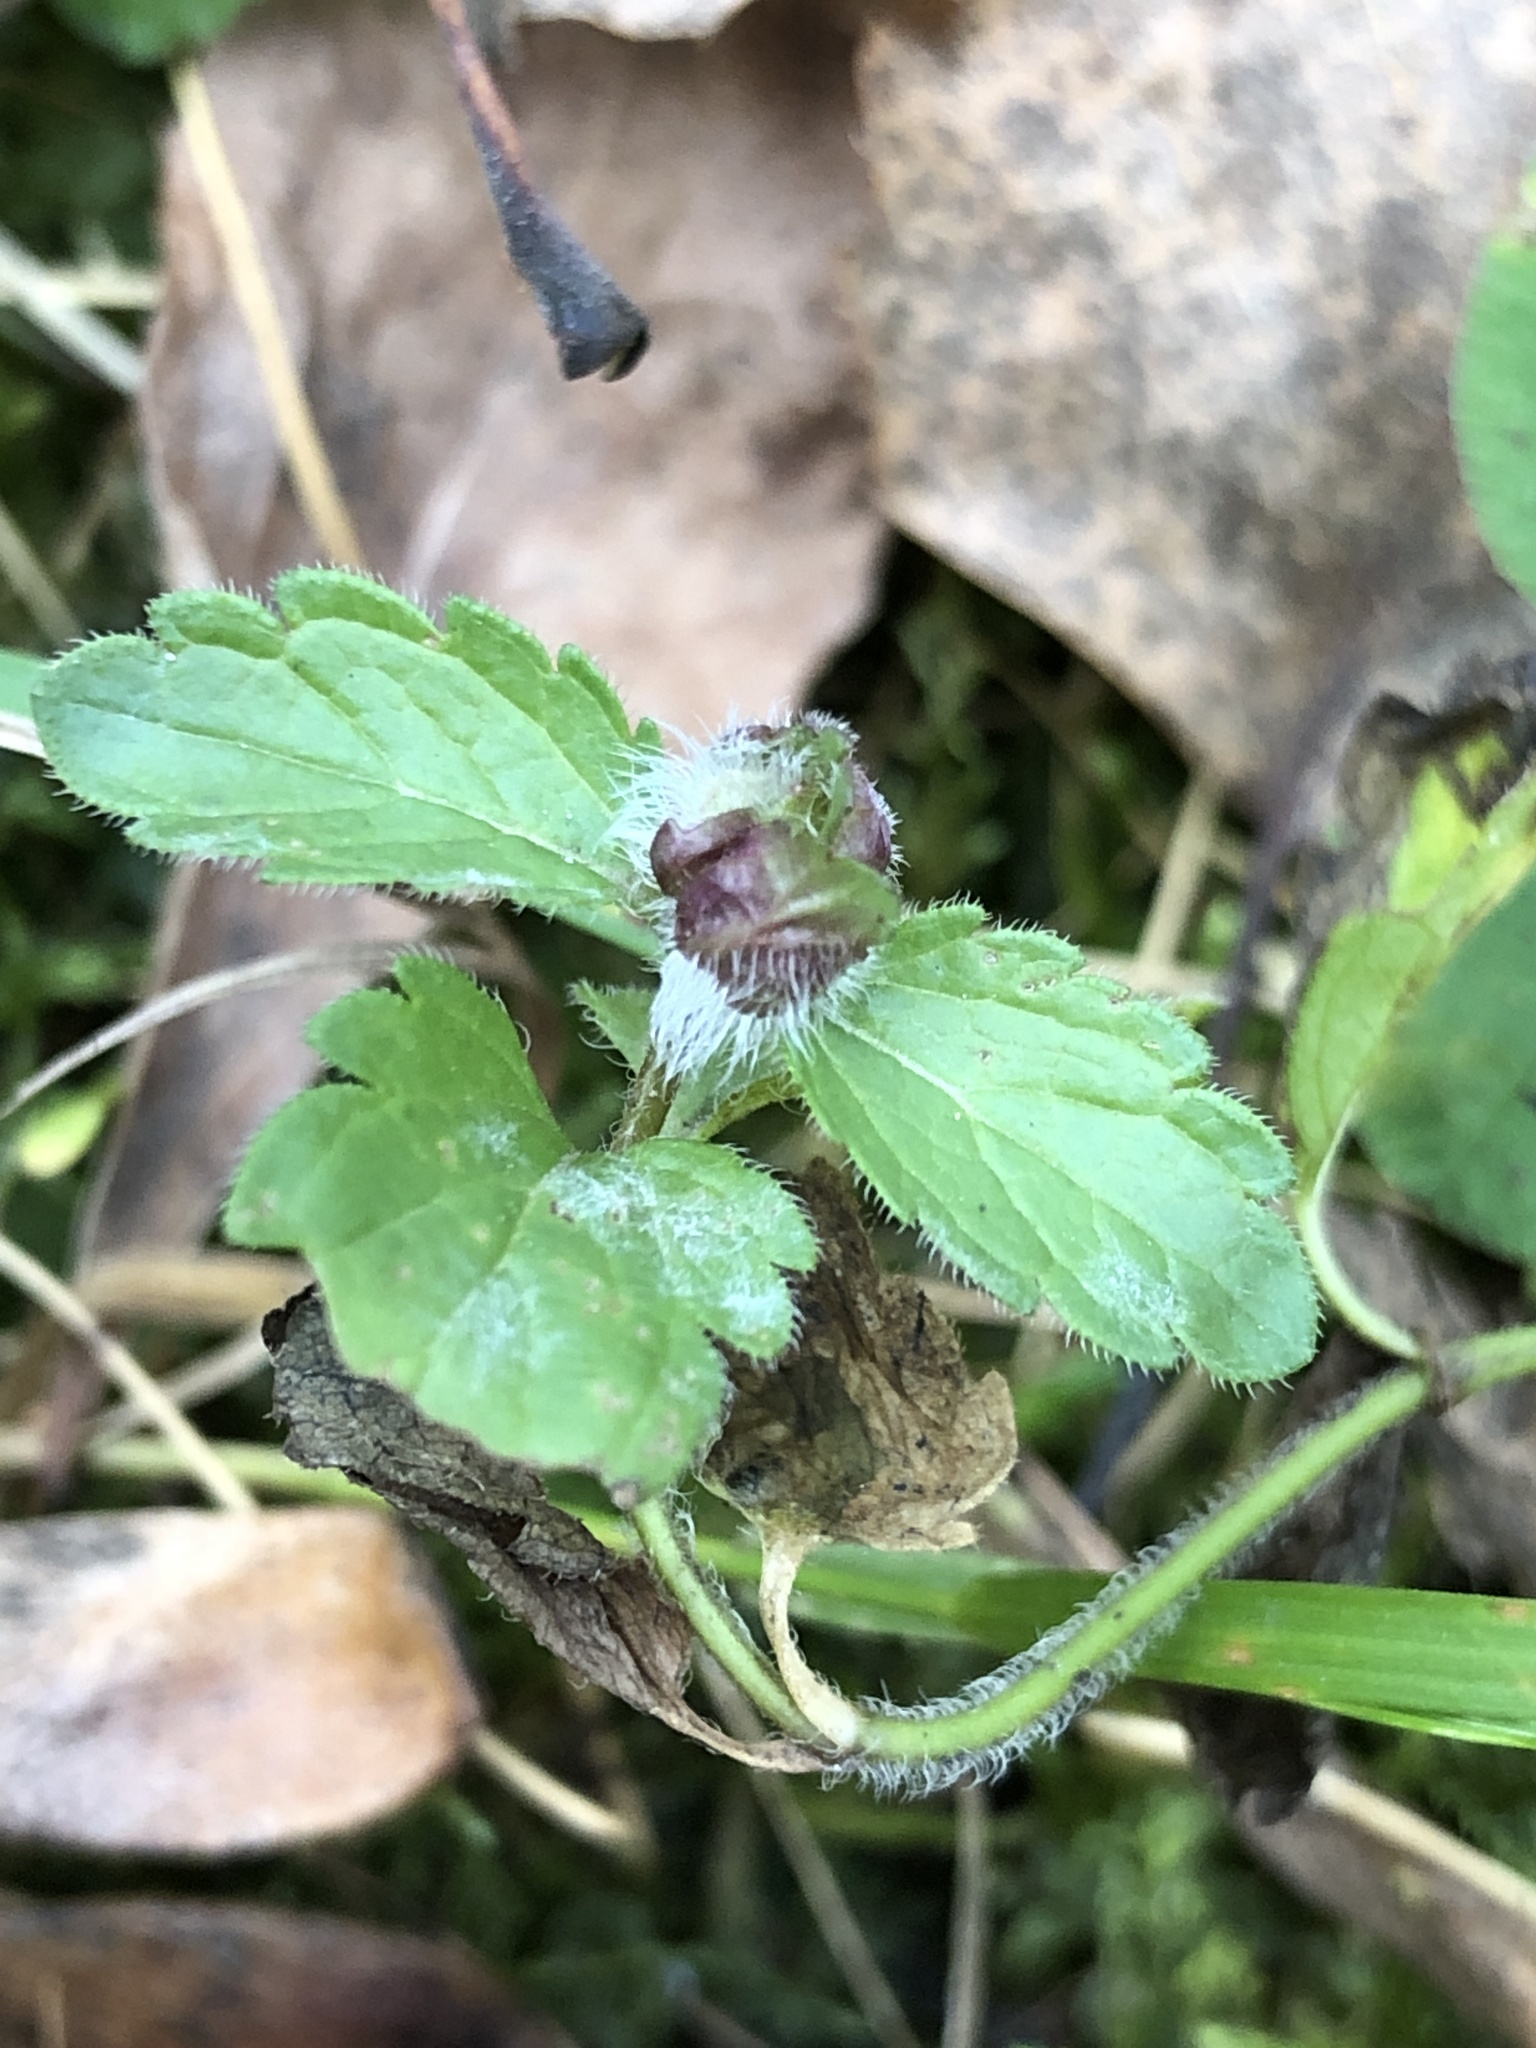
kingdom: Plantae
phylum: Tracheophyta
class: Magnoliopsida
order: Lamiales
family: Plantaginaceae
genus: Veronica
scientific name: Veronica chamaedrys
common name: Germander speedwell
